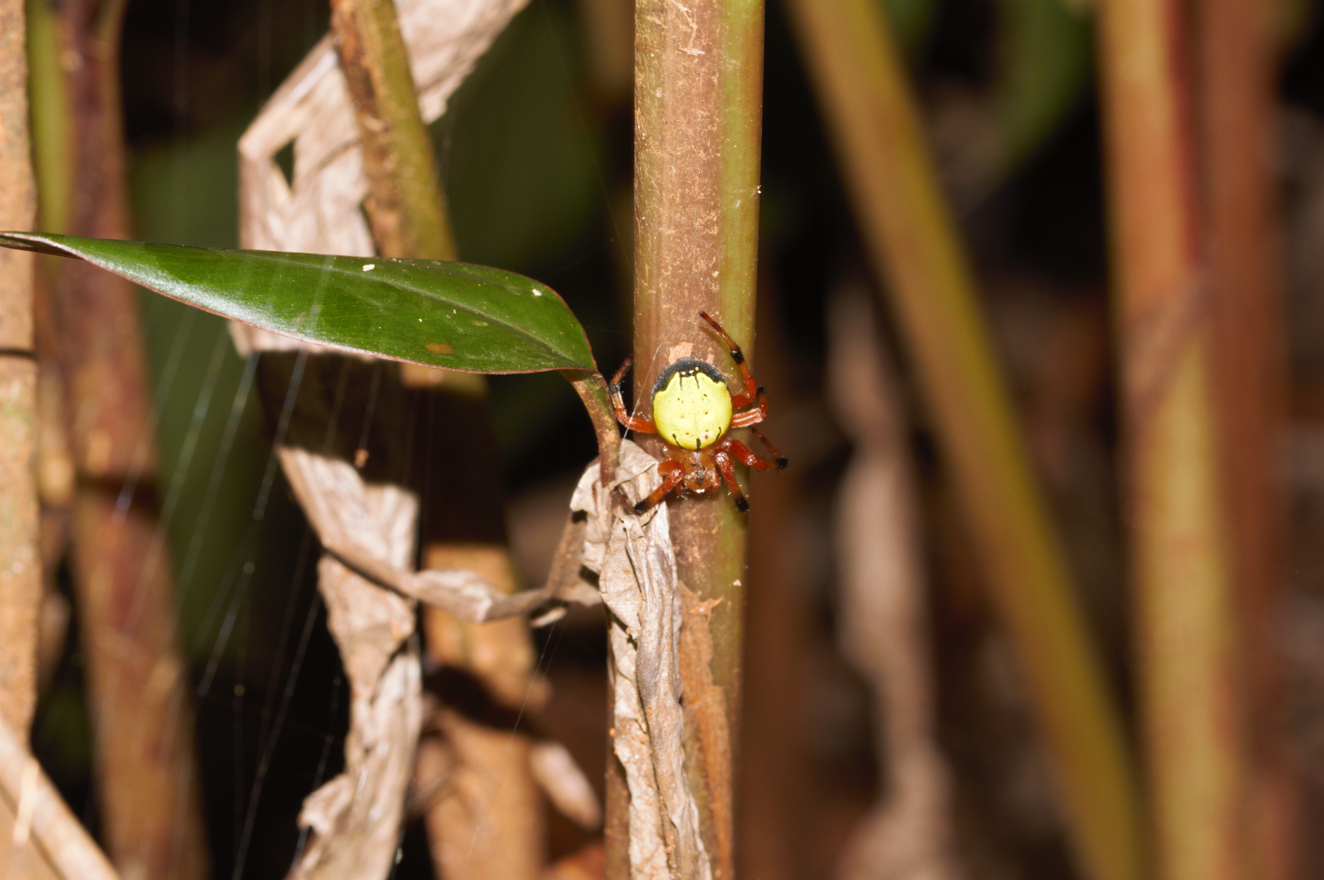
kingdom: Animalia
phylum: Arthropoda
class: Arachnida
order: Araneae
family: Araneidae
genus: Dubiepeira
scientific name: Dubiepeira neptunina
